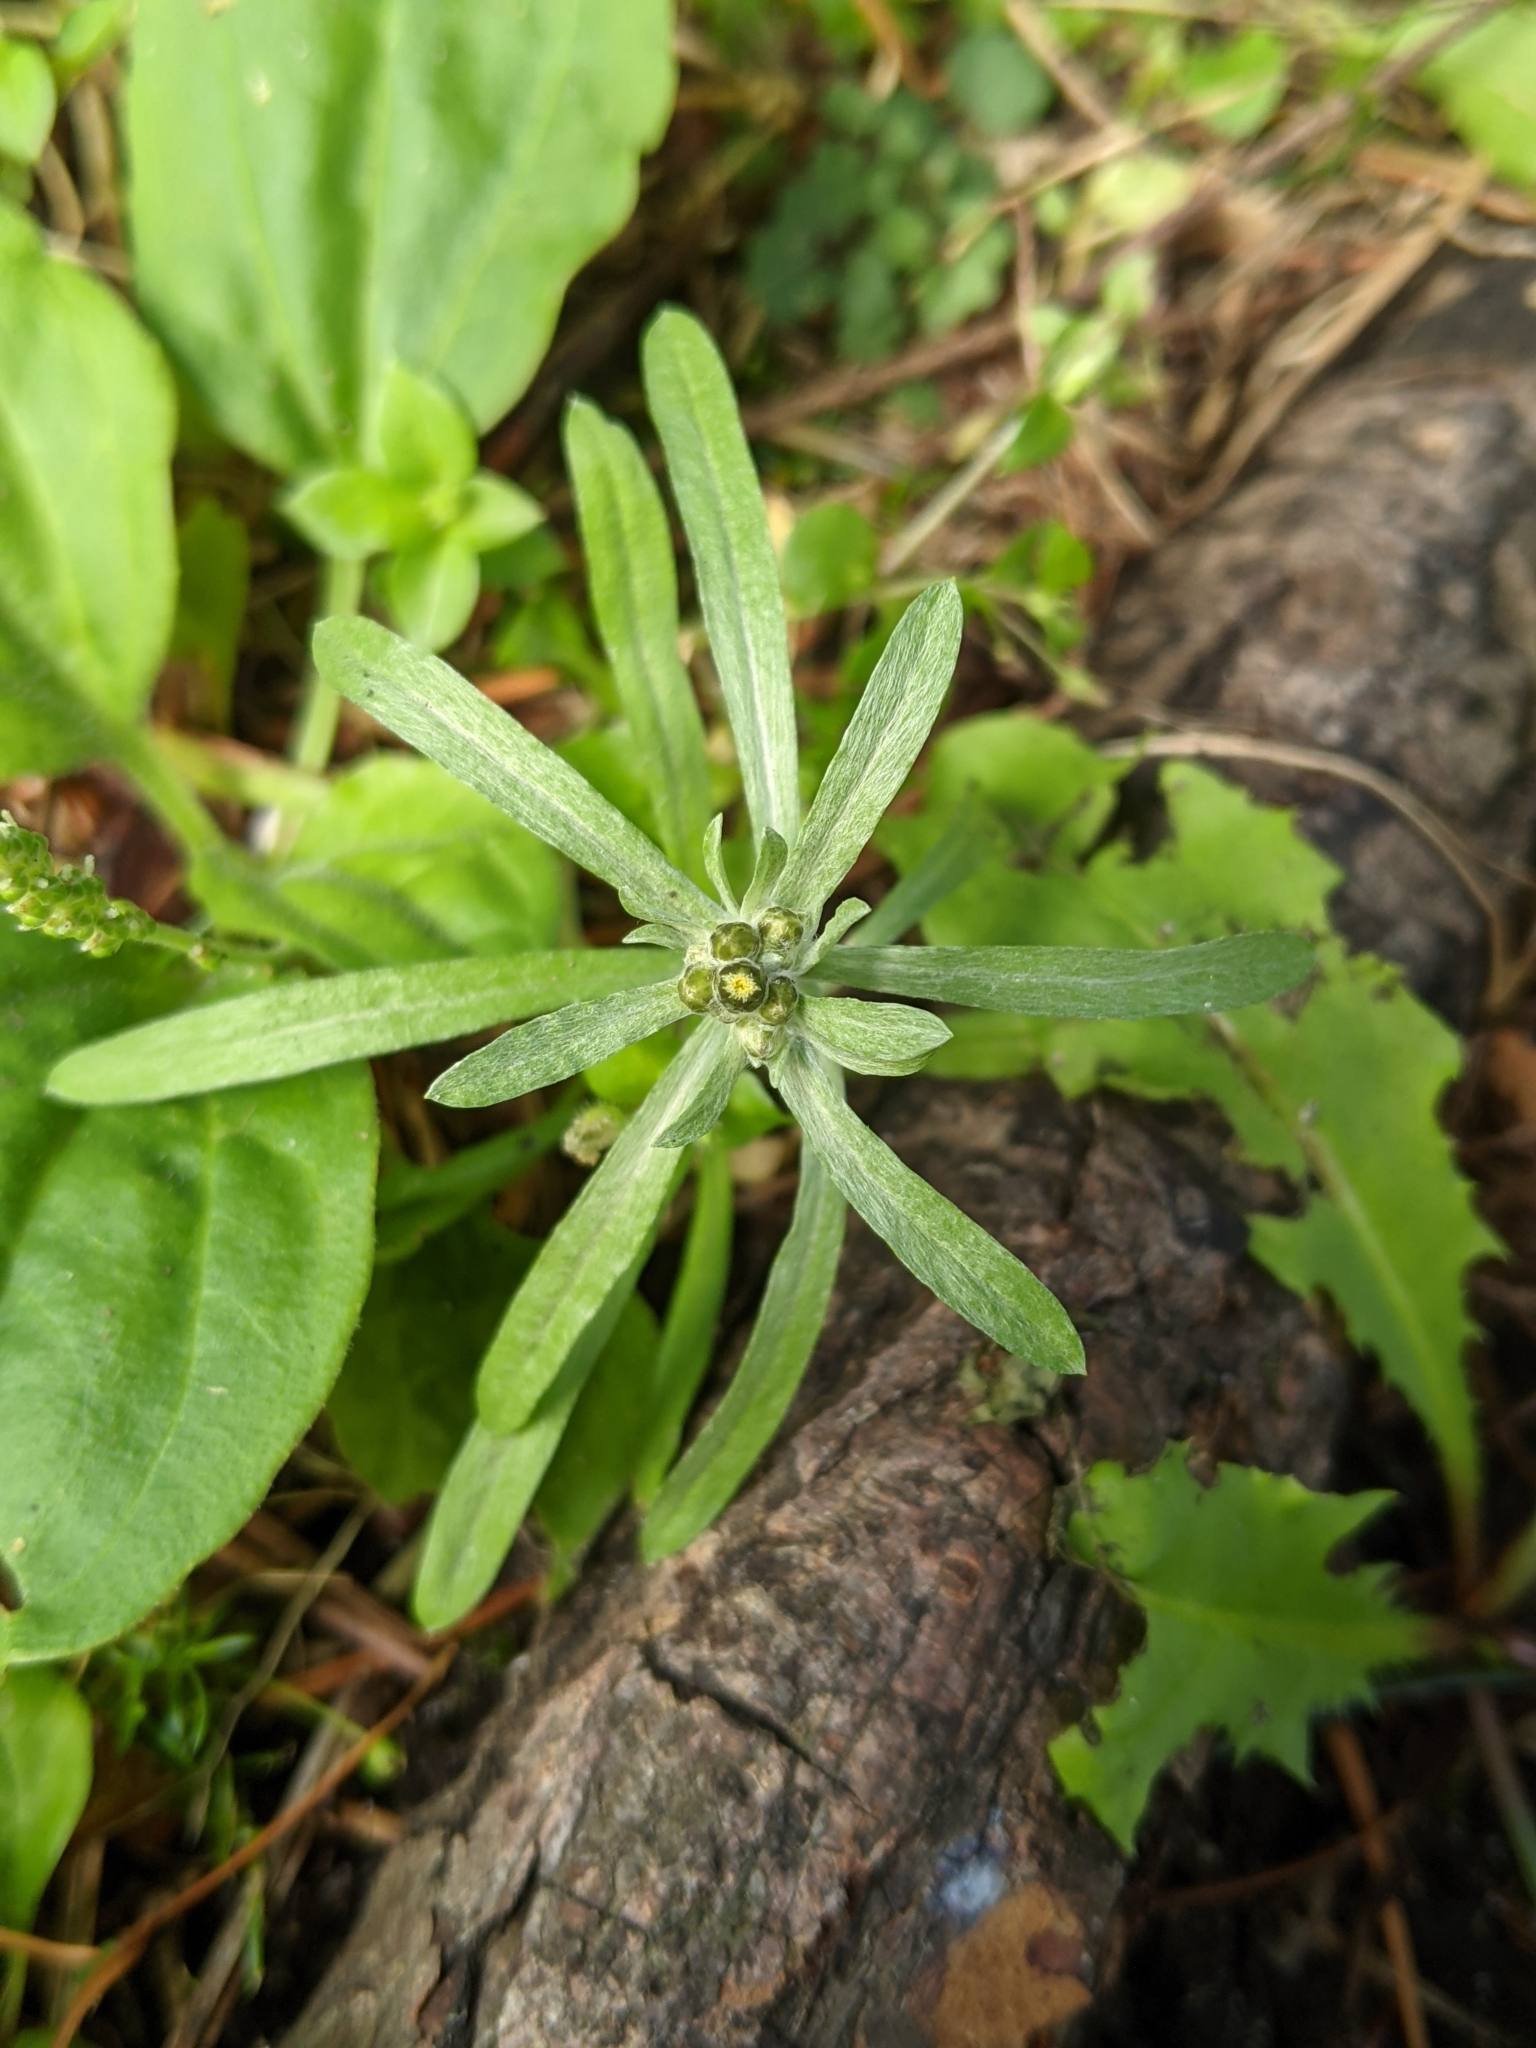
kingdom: Plantae
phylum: Tracheophyta
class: Magnoliopsida
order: Asterales
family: Asteraceae
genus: Gnaphalium
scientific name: Gnaphalium uliginosum
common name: Marsh cudweed
